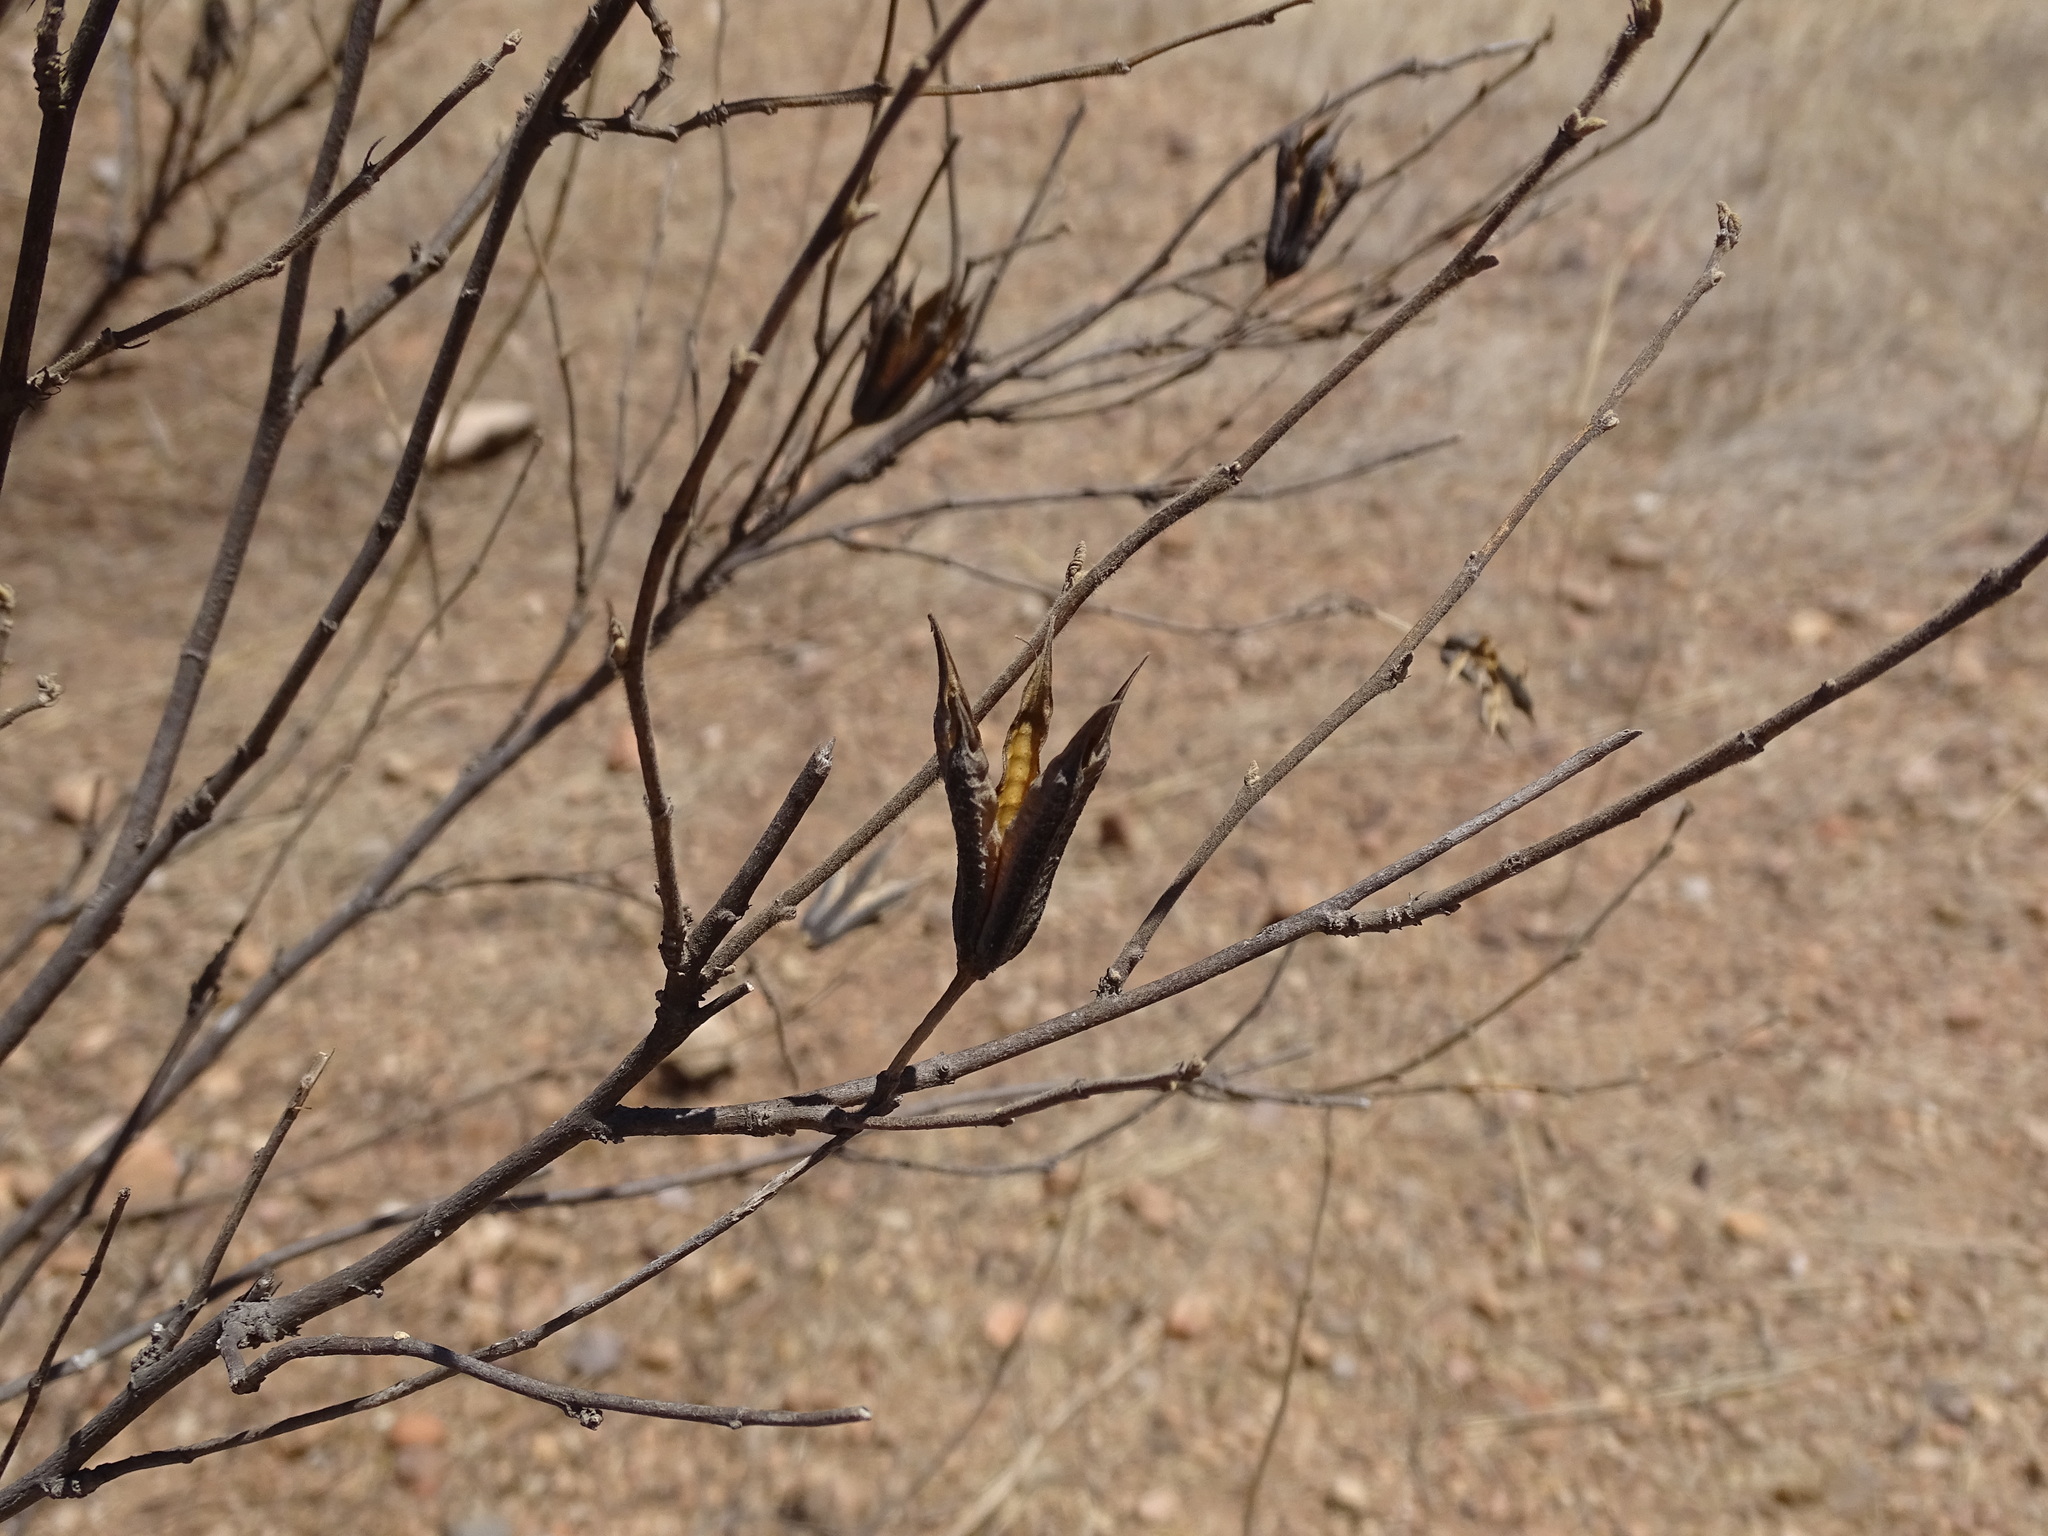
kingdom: Plantae
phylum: Tracheophyta
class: Magnoliopsida
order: Malvales
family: Malvaceae
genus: Helicteres
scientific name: Helicteres vegae
